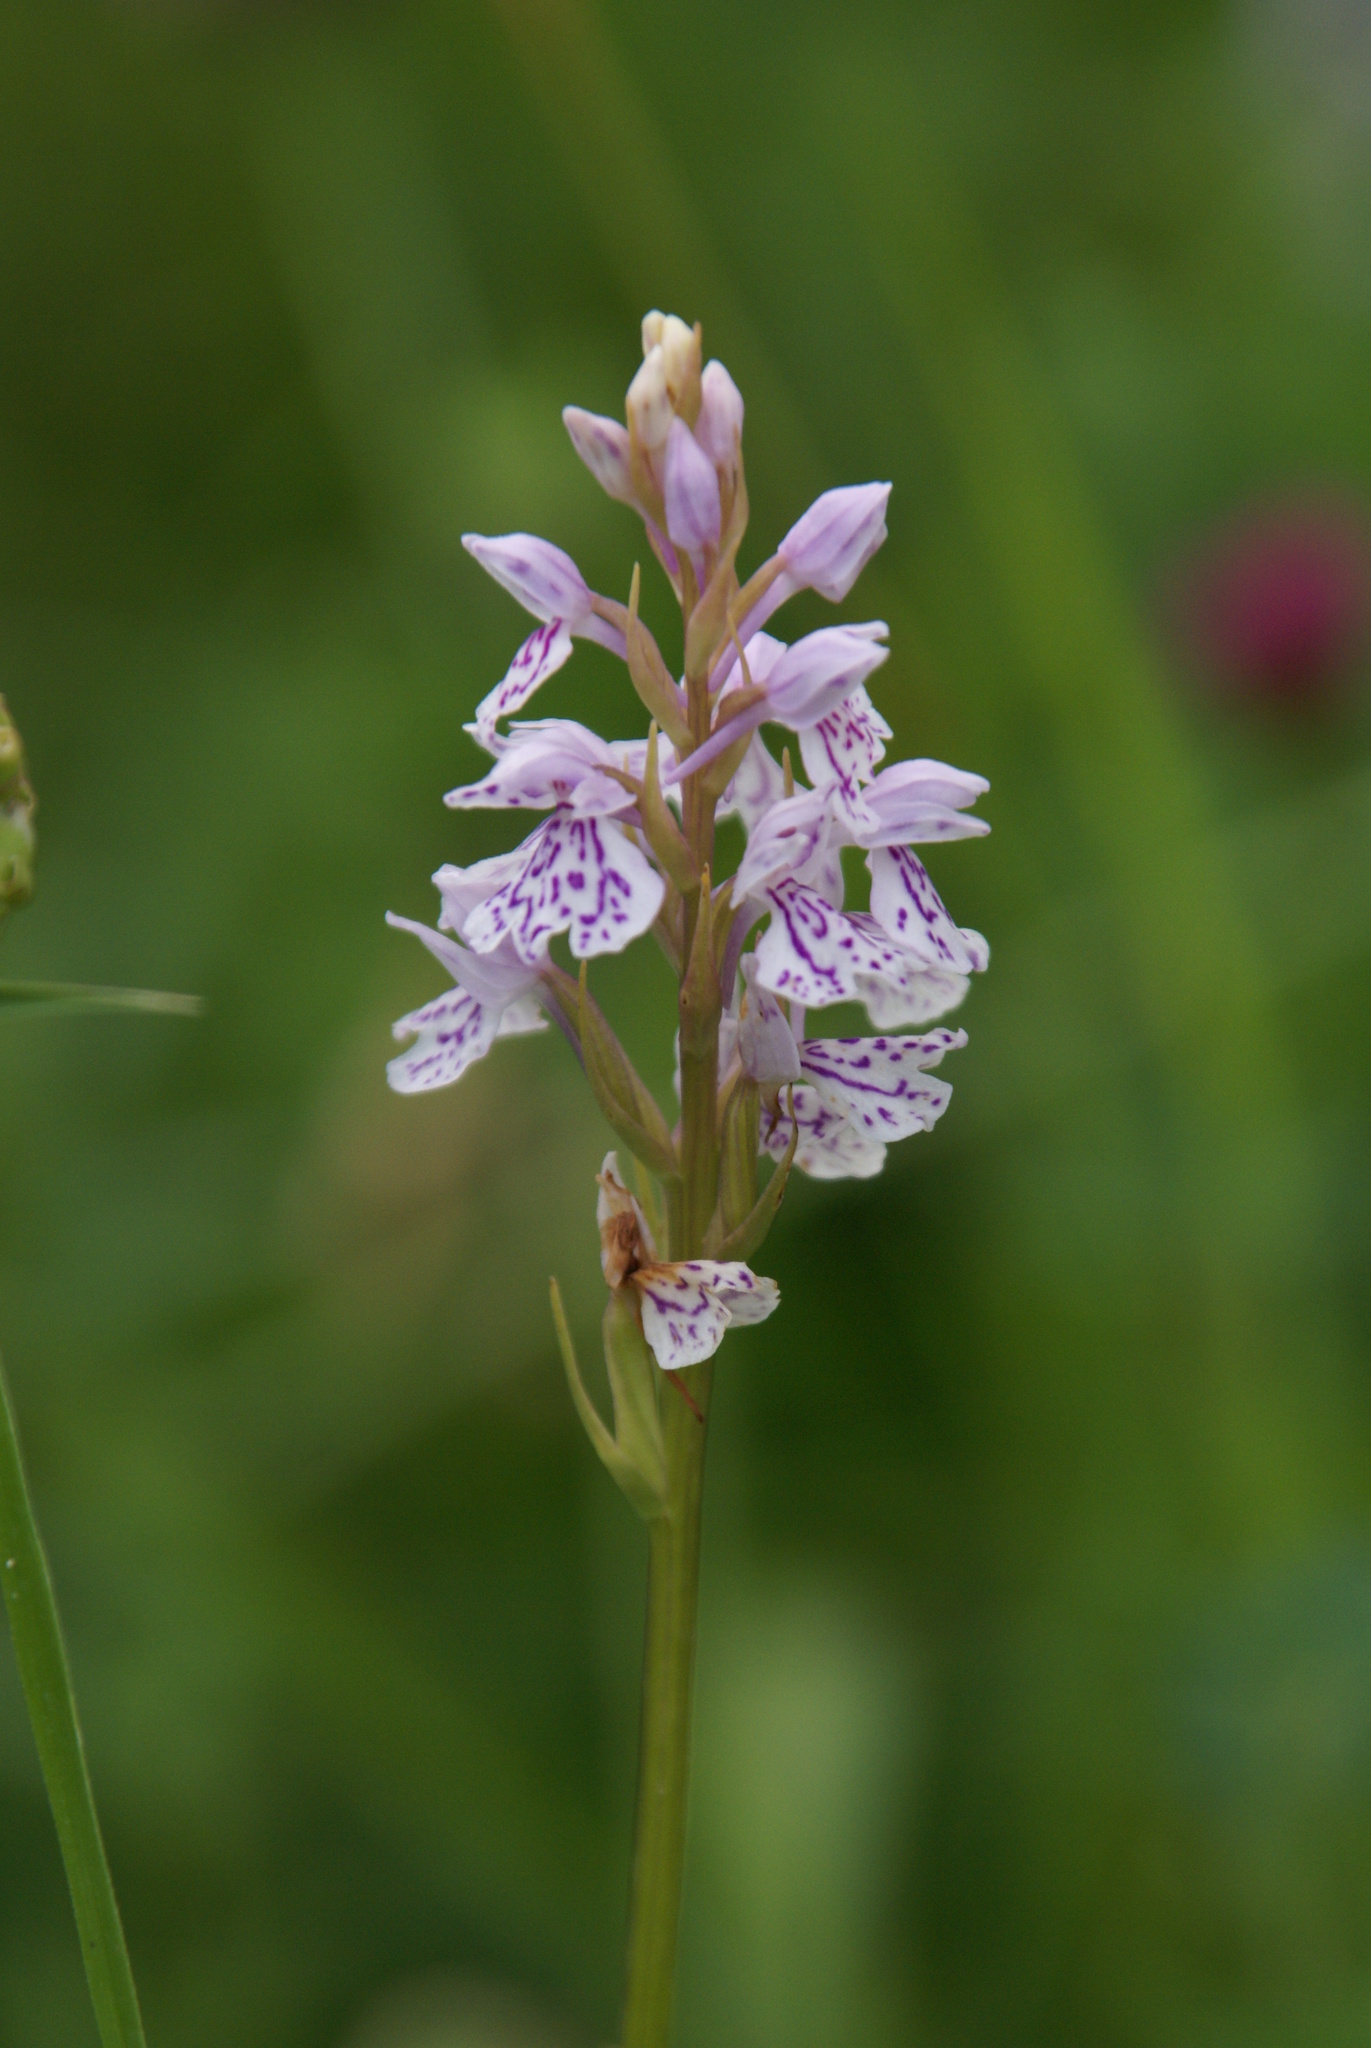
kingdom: Plantae
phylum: Tracheophyta
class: Liliopsida
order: Asparagales
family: Orchidaceae
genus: Dactylorhiza
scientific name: Dactylorhiza maculata
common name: Heath spotted-orchid
